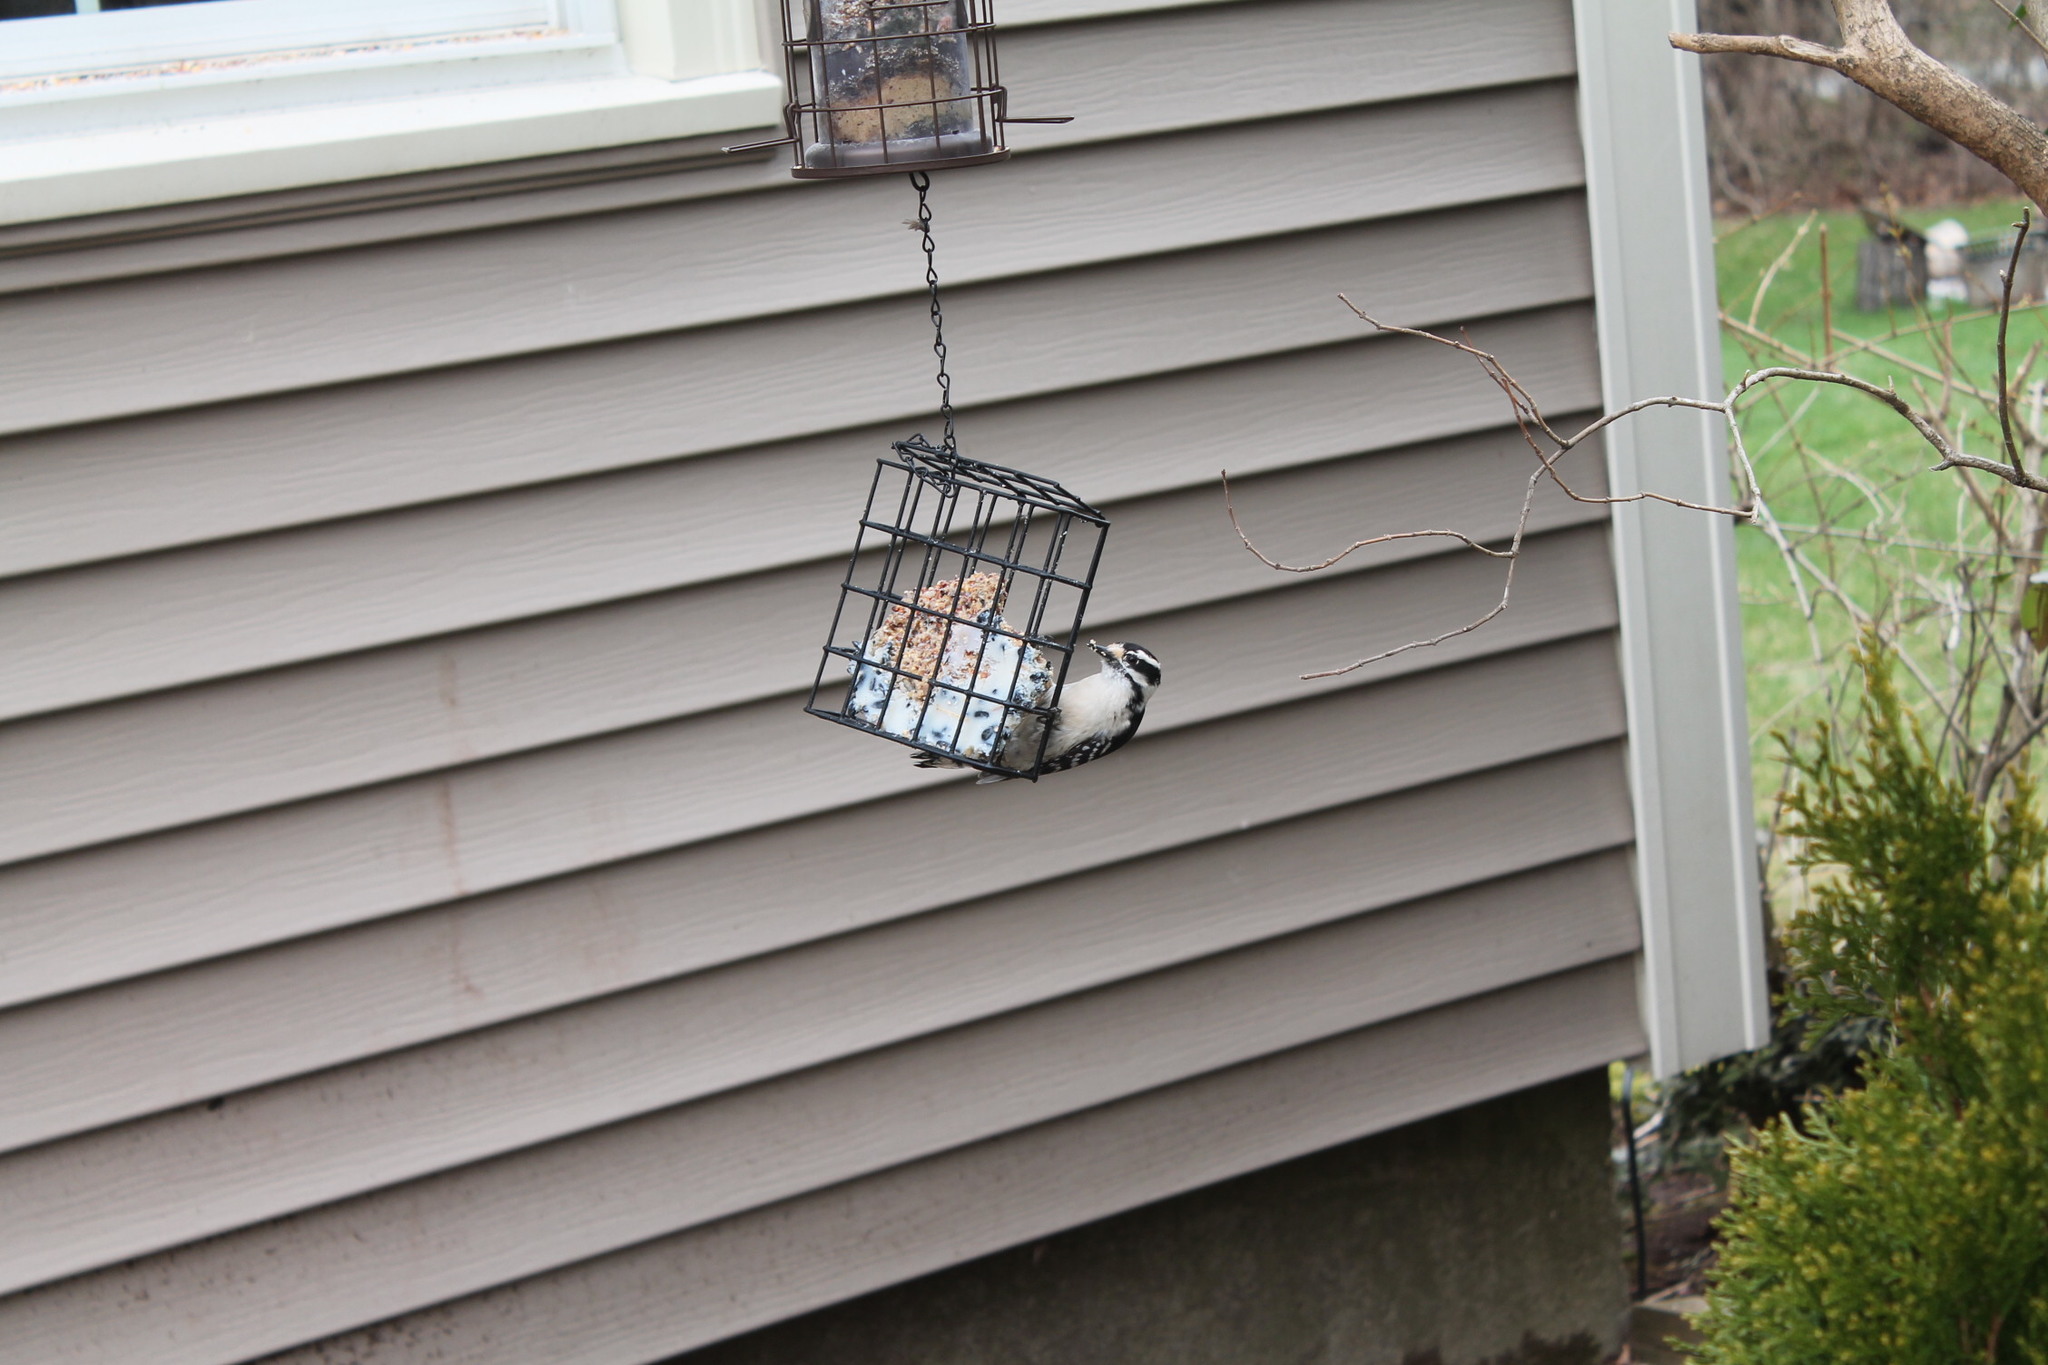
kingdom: Animalia
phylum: Chordata
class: Aves
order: Piciformes
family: Picidae
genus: Dryobates
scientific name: Dryobates pubescens
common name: Downy woodpecker
